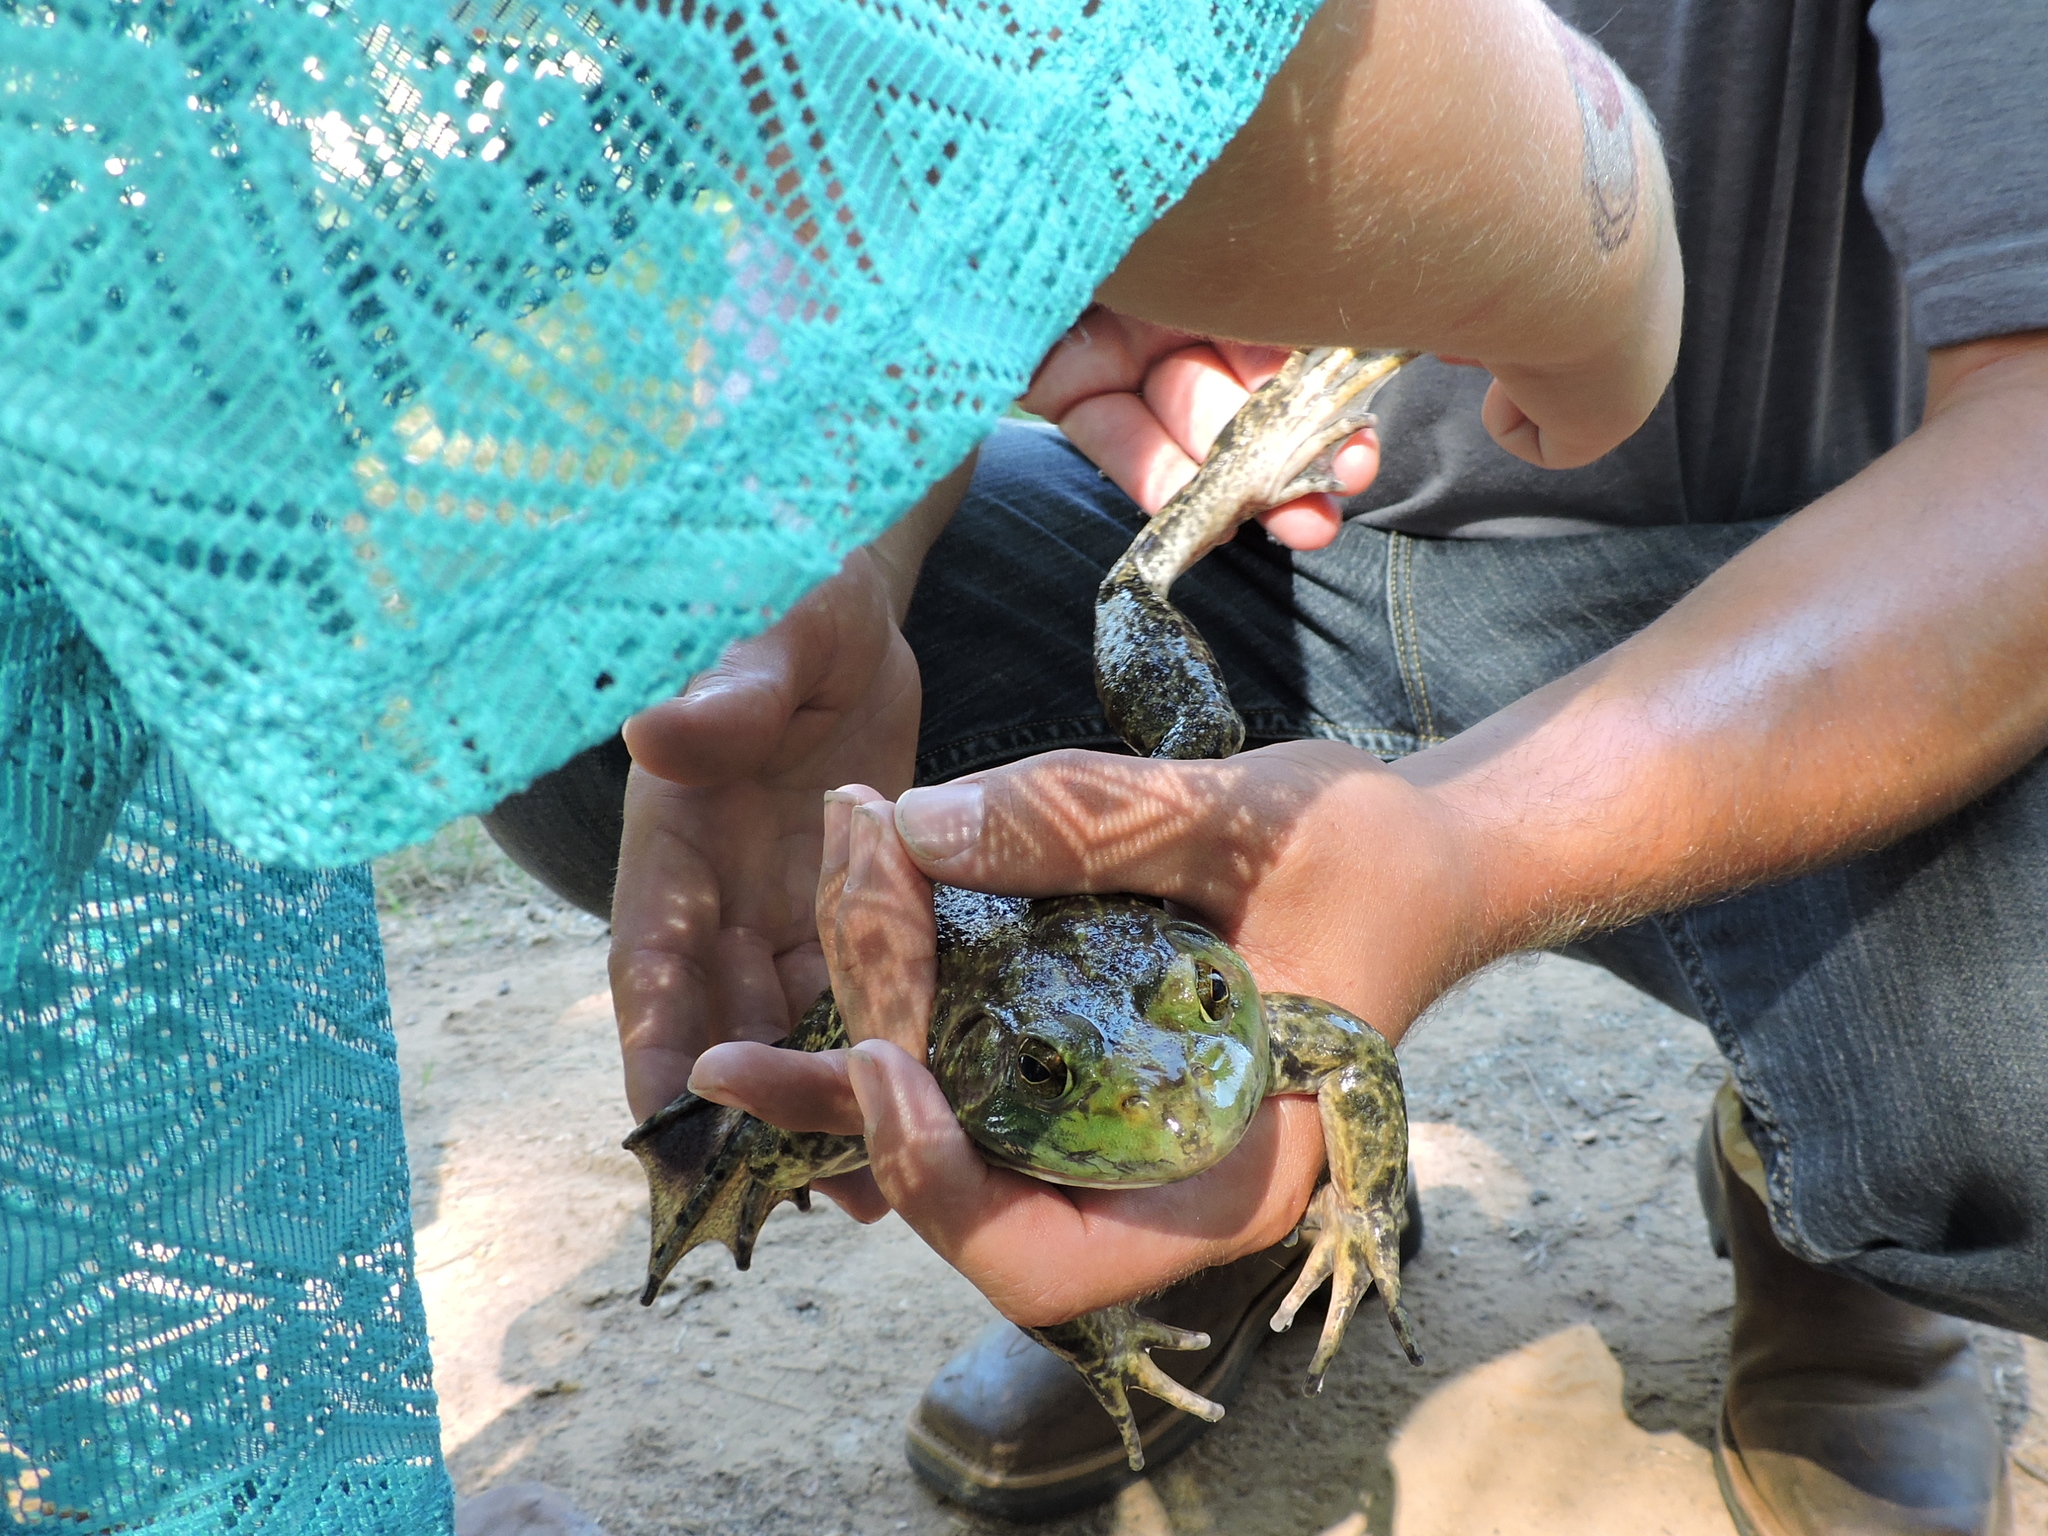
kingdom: Animalia
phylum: Chordata
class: Amphibia
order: Anura
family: Ranidae
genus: Lithobates
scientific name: Lithobates catesbeianus
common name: American bullfrog
